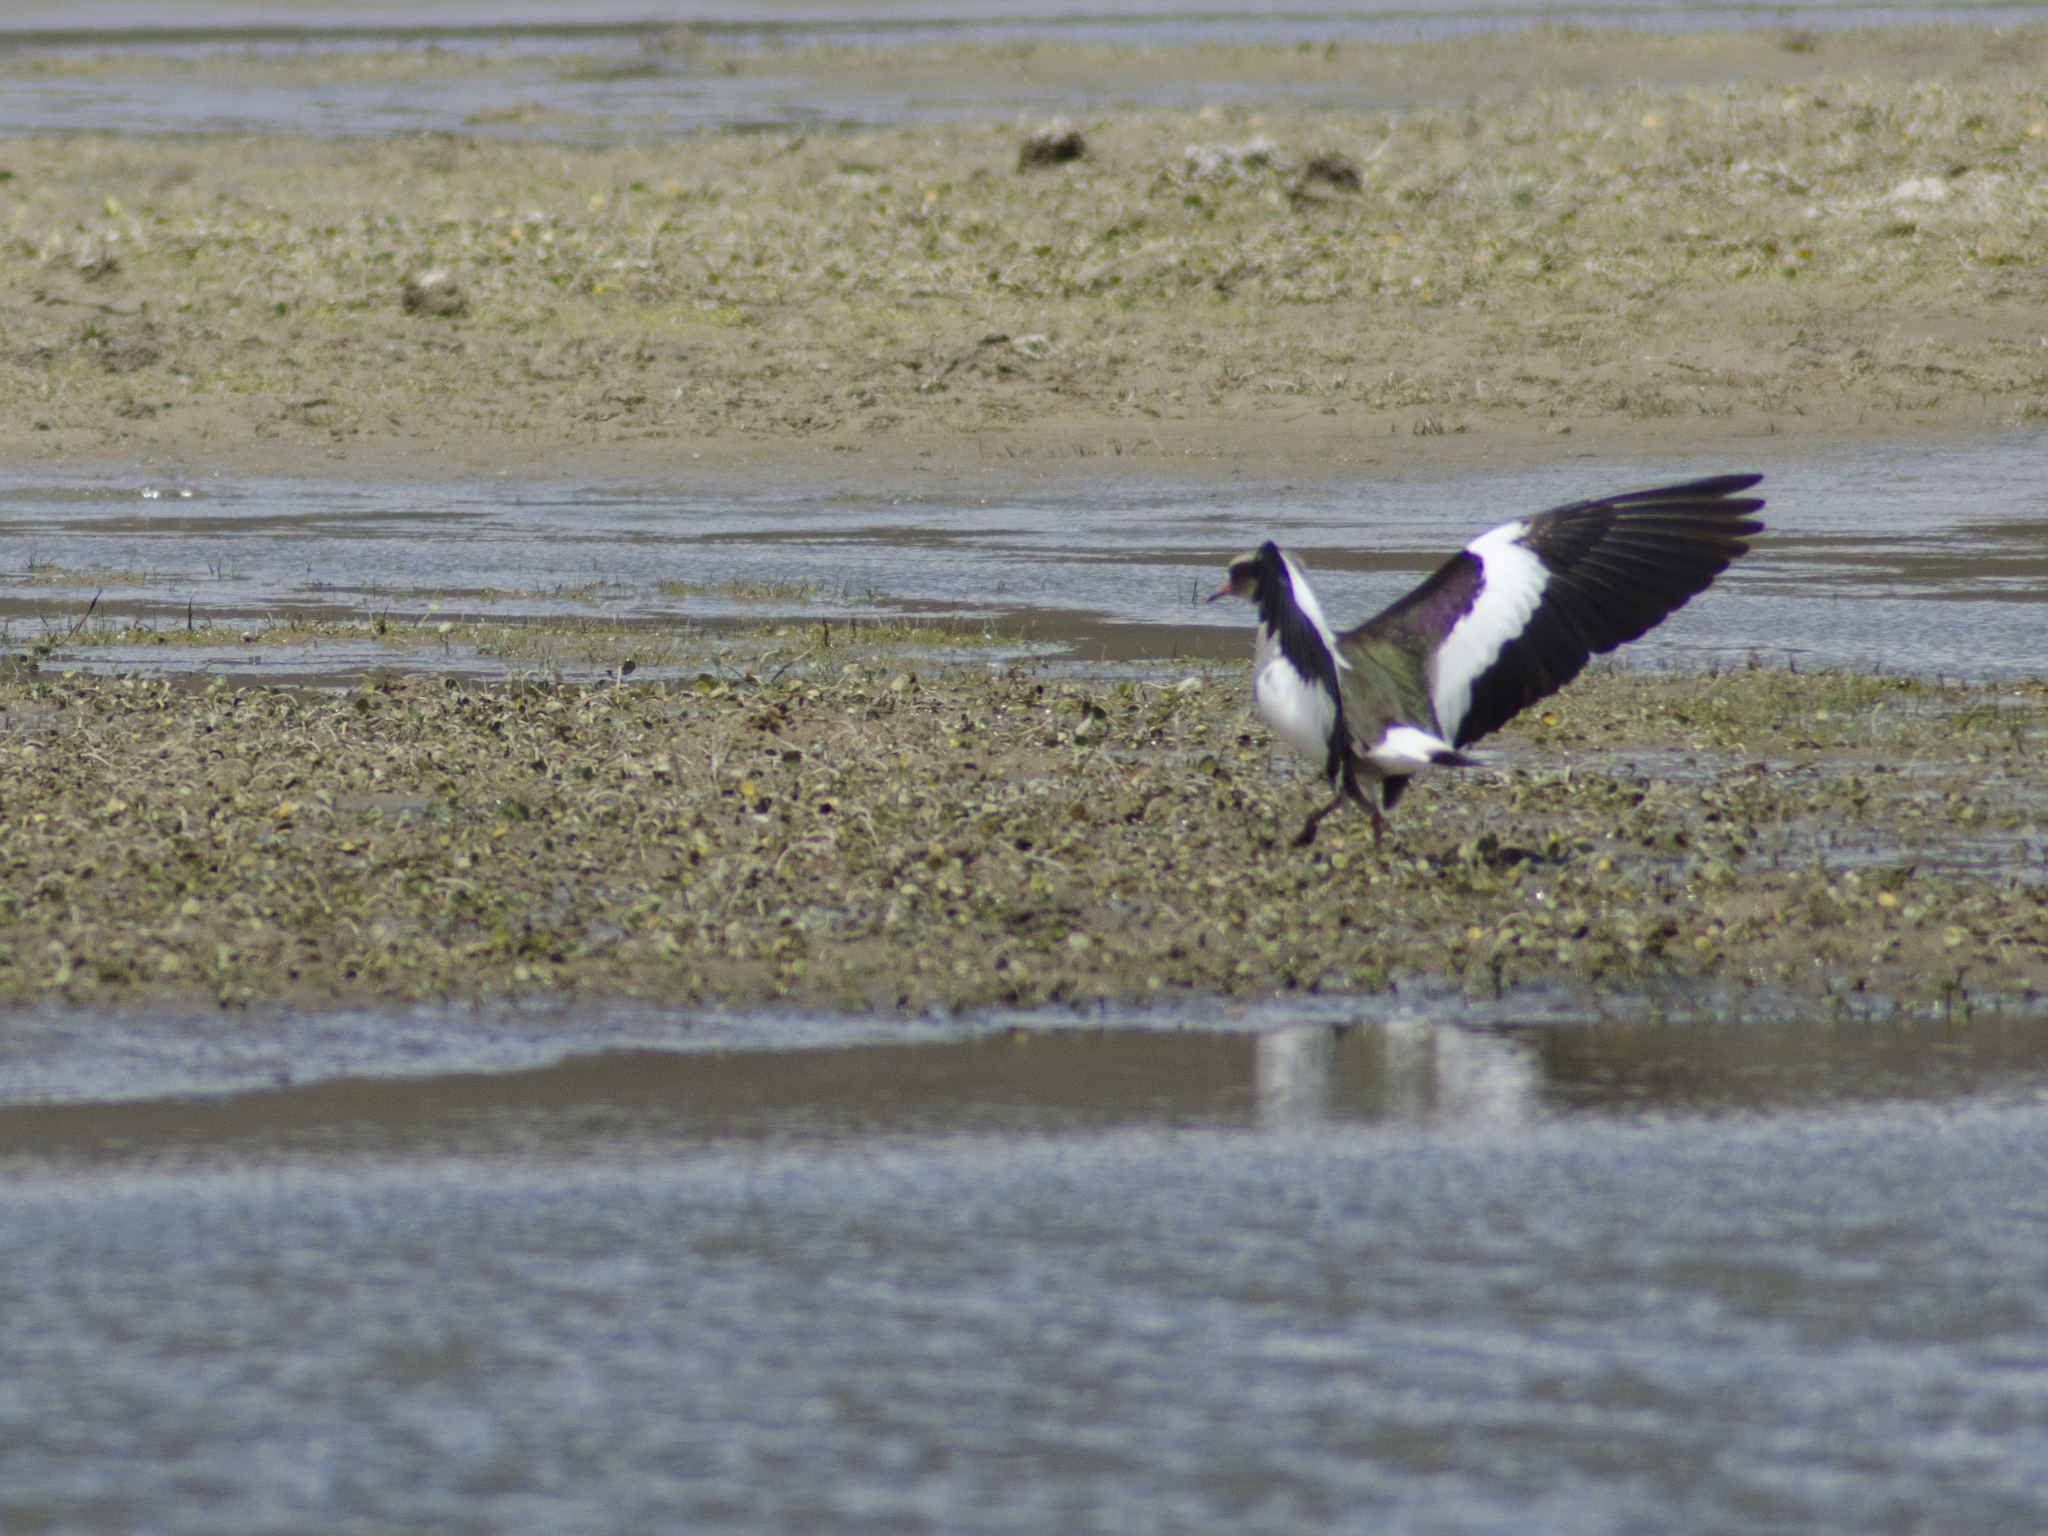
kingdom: Animalia
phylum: Chordata
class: Aves
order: Charadriiformes
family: Charadriidae
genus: Vanellus
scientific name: Vanellus resplendens
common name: Andean lapwing
